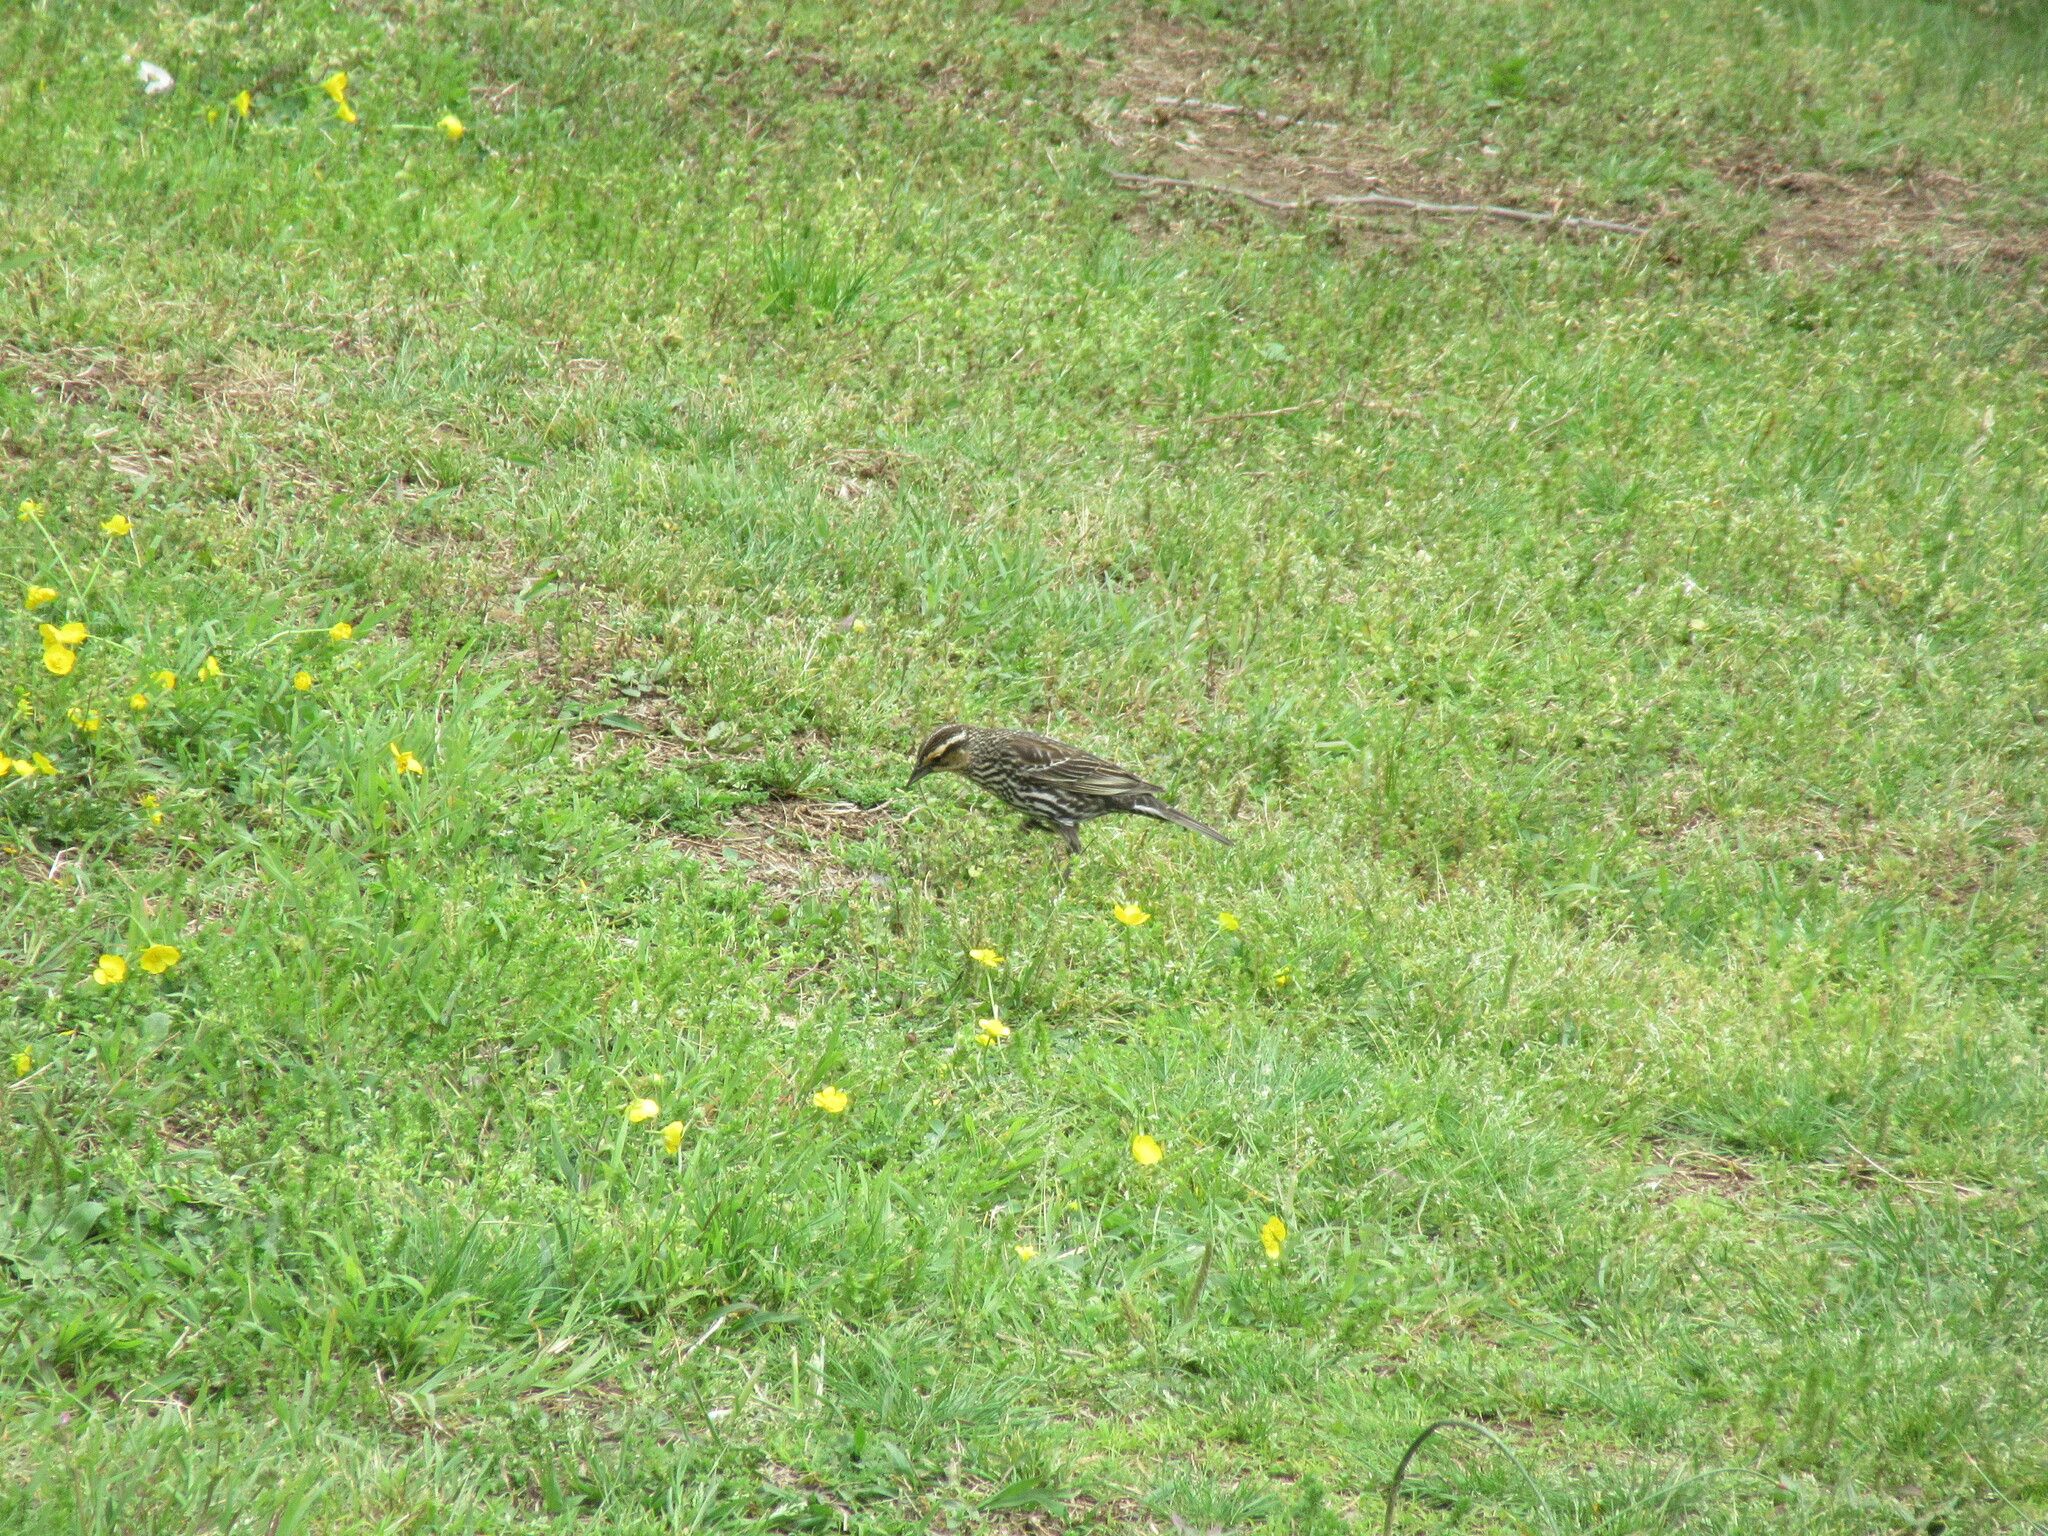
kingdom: Animalia
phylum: Chordata
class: Aves
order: Passeriformes
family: Icteridae
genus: Agelaius
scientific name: Agelaius phoeniceus
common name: Red-winged blackbird
